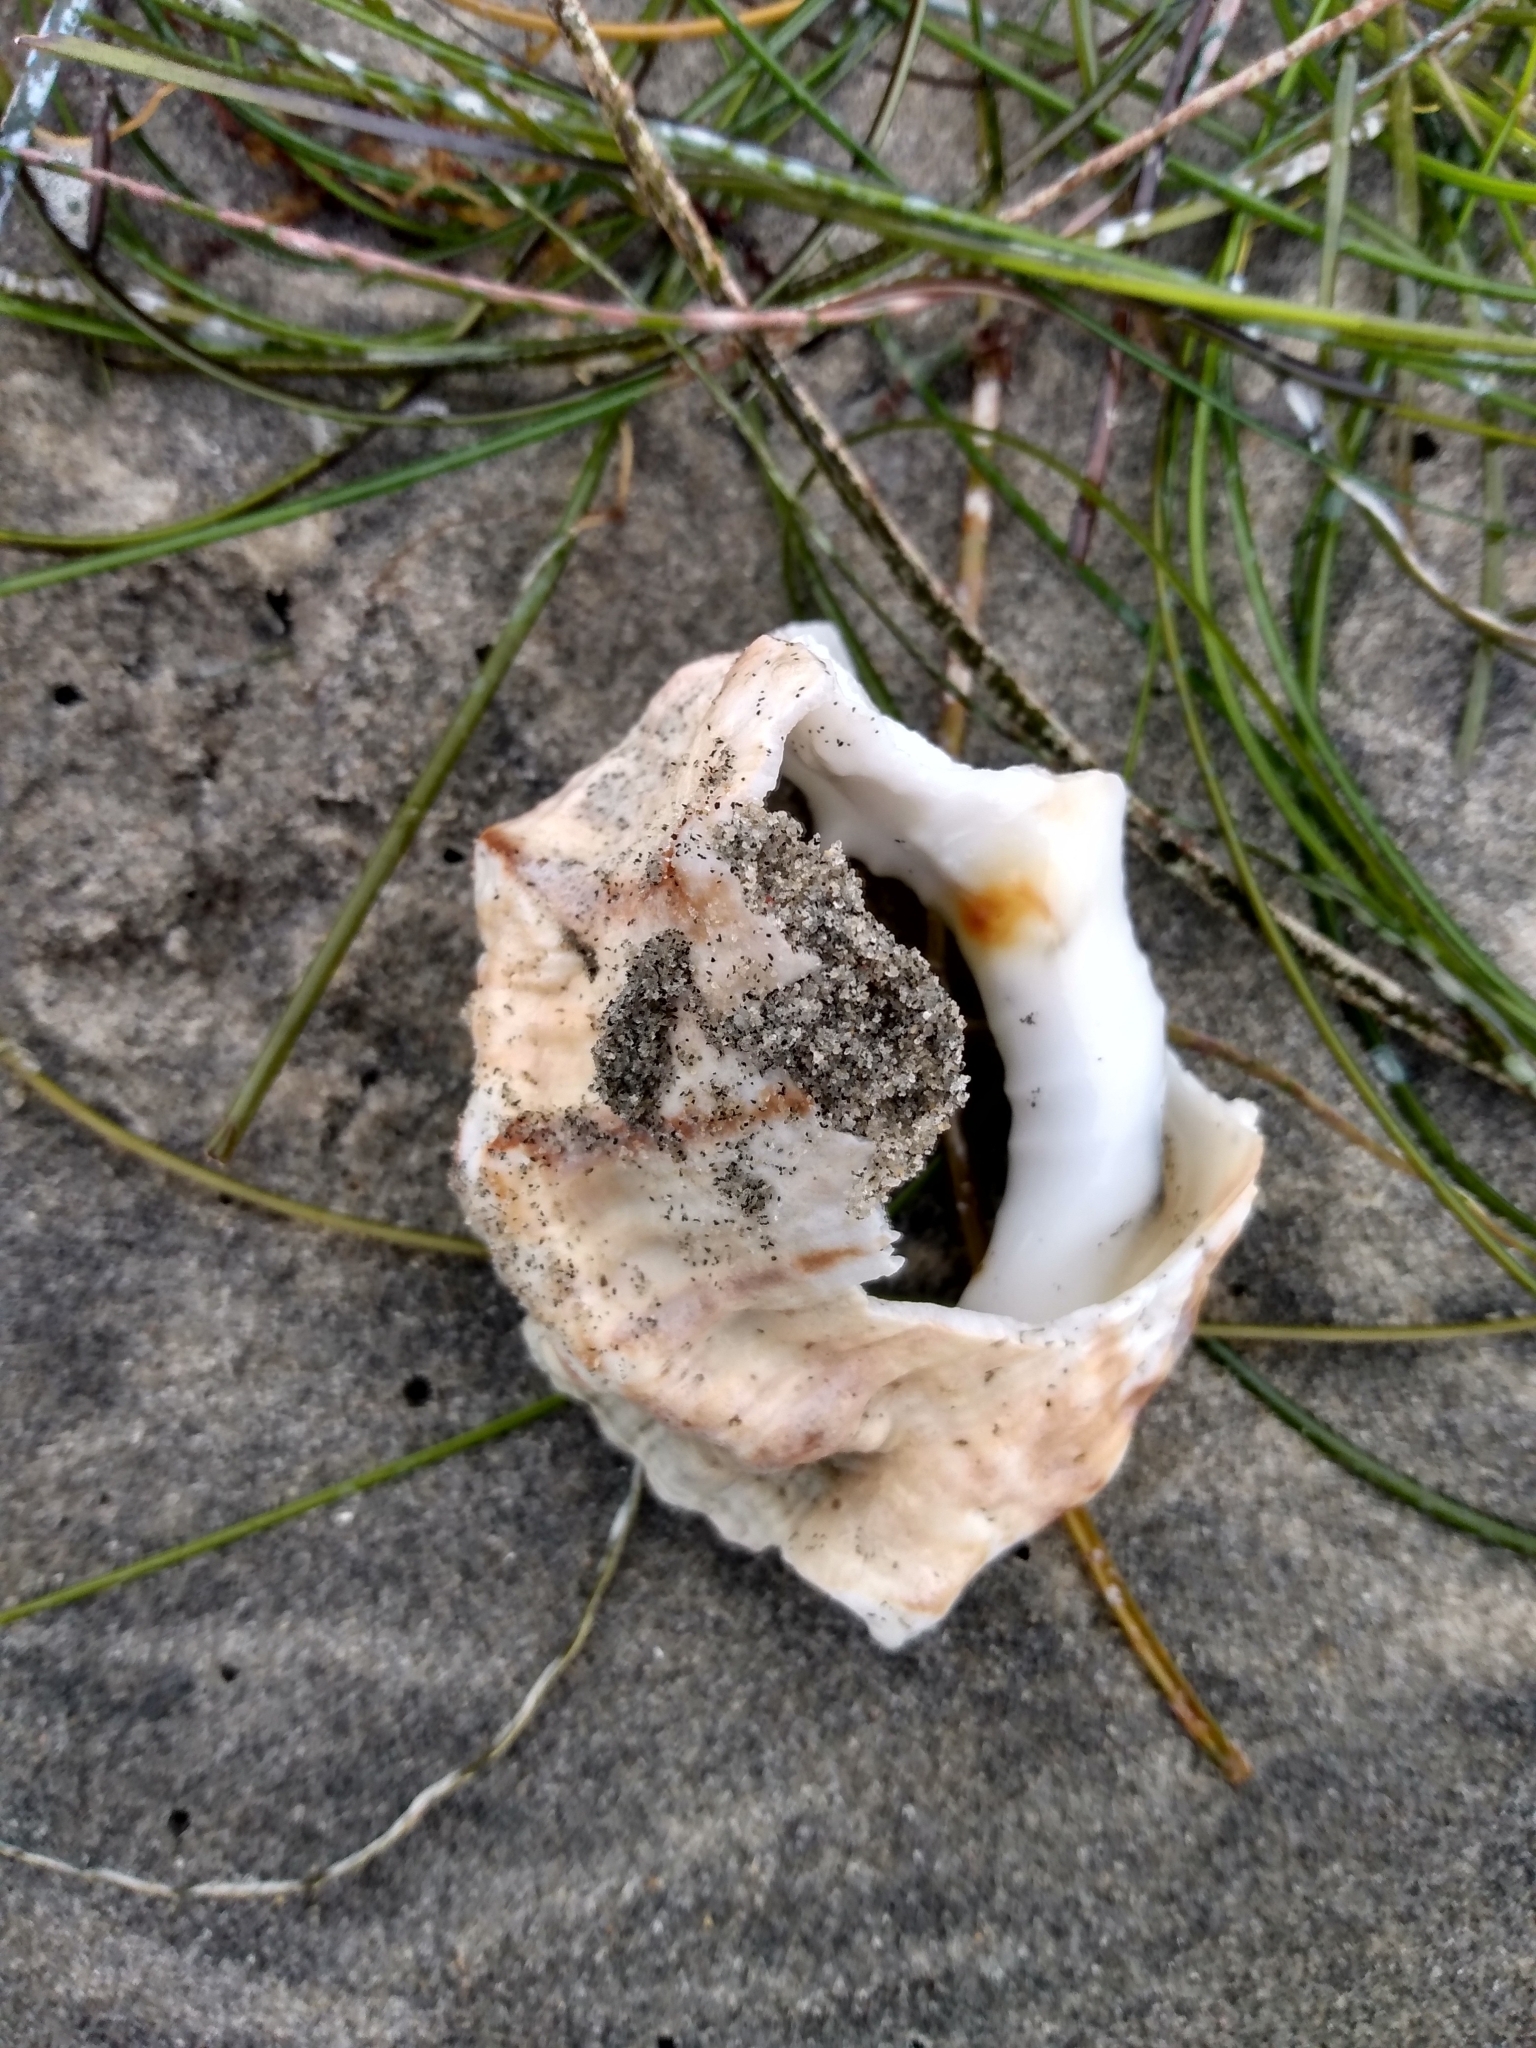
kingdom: Animalia
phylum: Mollusca
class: Gastropoda
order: Littorinimorpha
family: Bursidae
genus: Crossata
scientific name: Crossata californica
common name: California frogsnail
